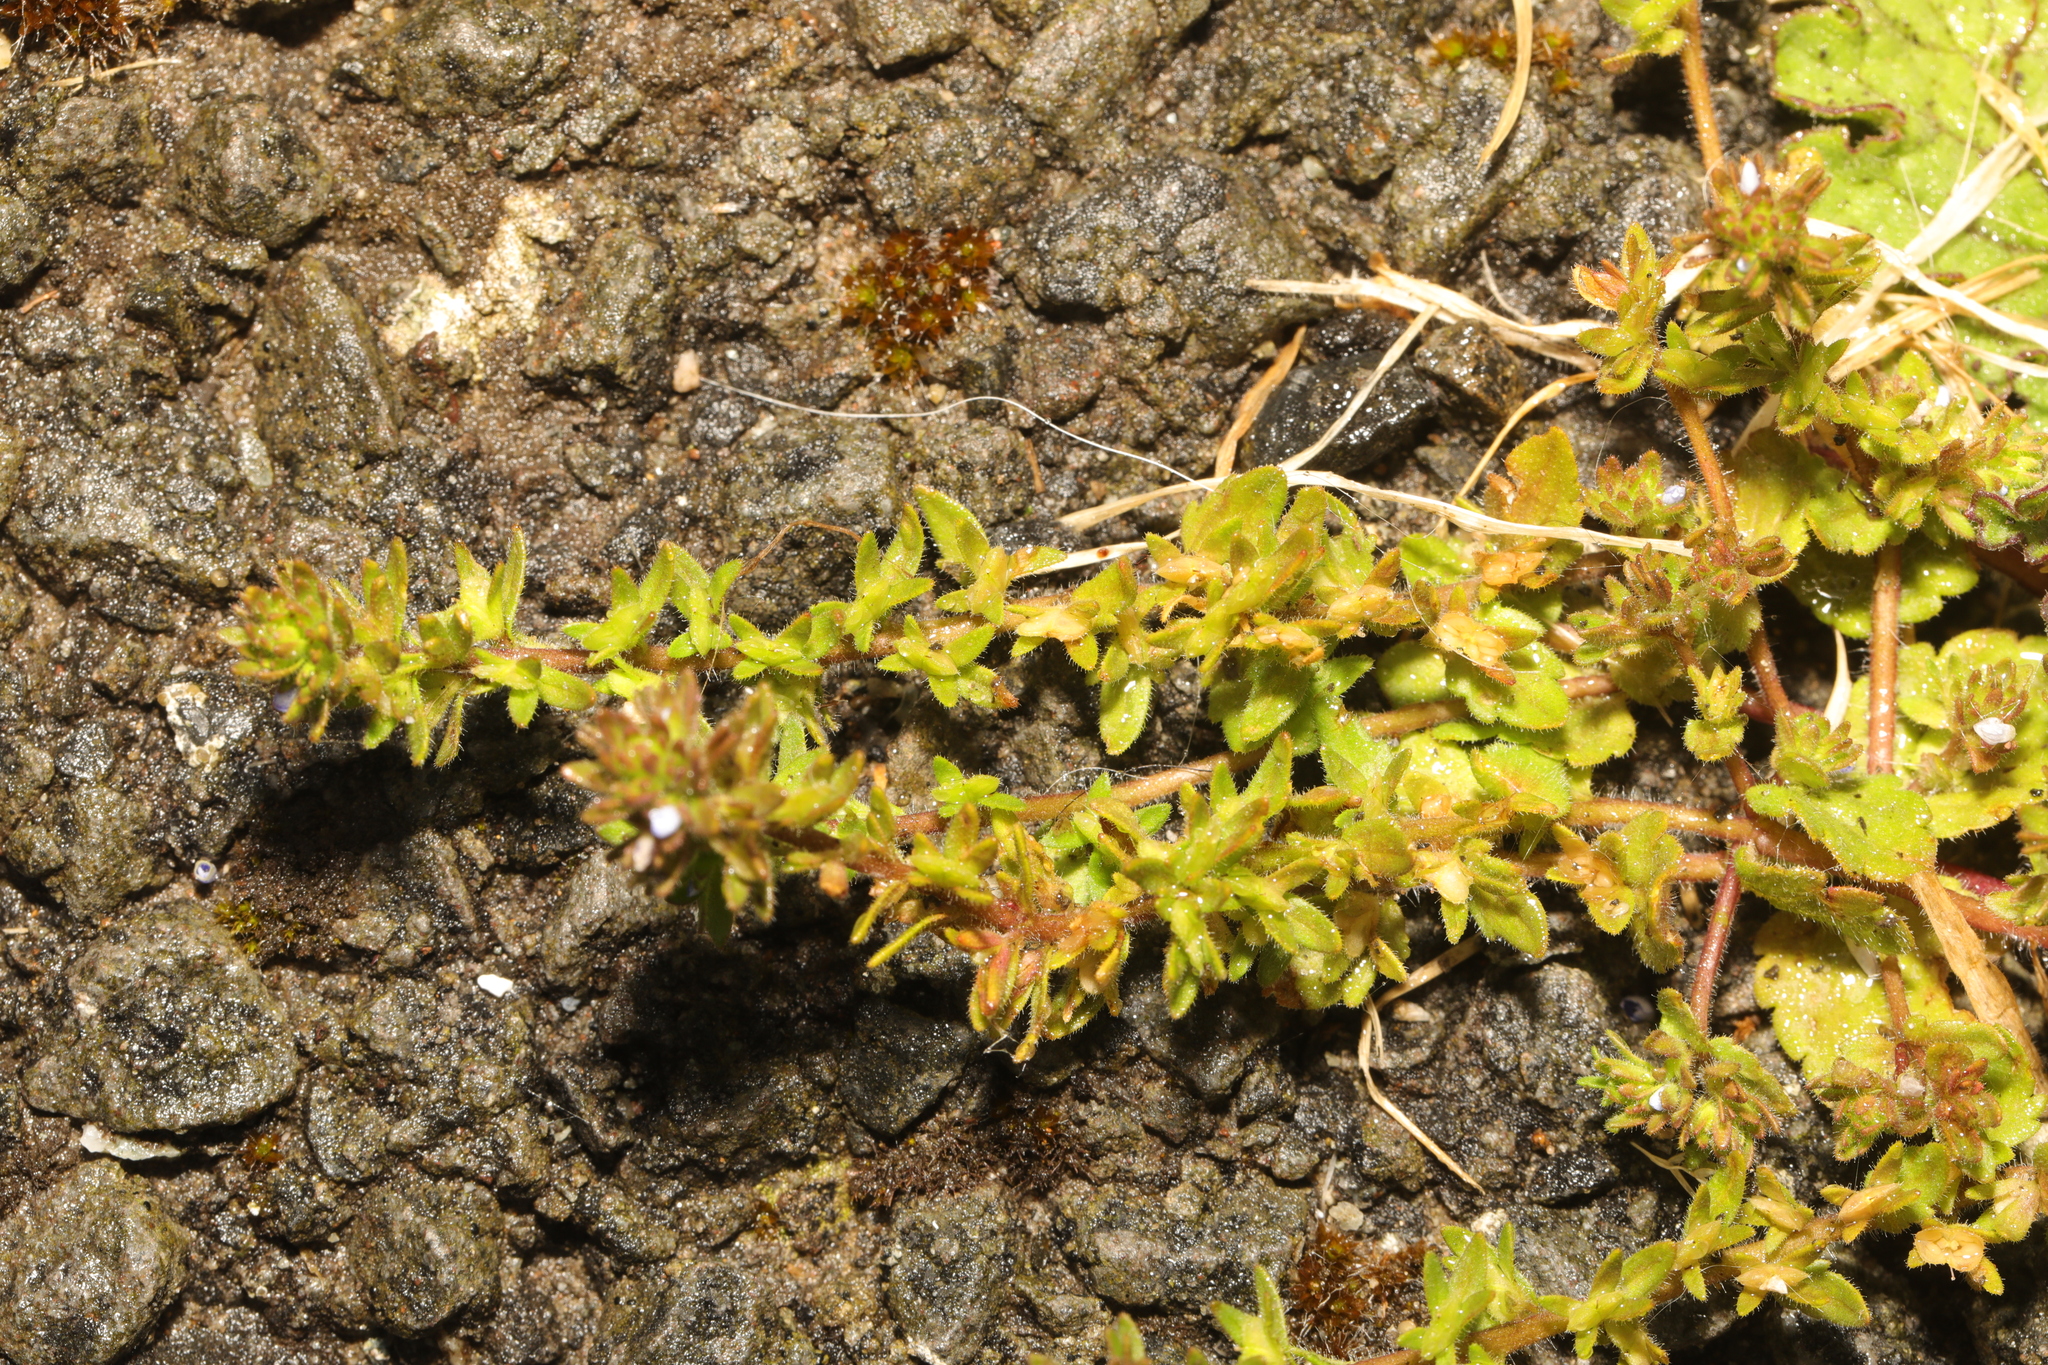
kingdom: Plantae
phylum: Tracheophyta
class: Magnoliopsida
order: Lamiales
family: Plantaginaceae
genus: Veronica
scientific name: Veronica arvensis
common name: Corn speedwell
